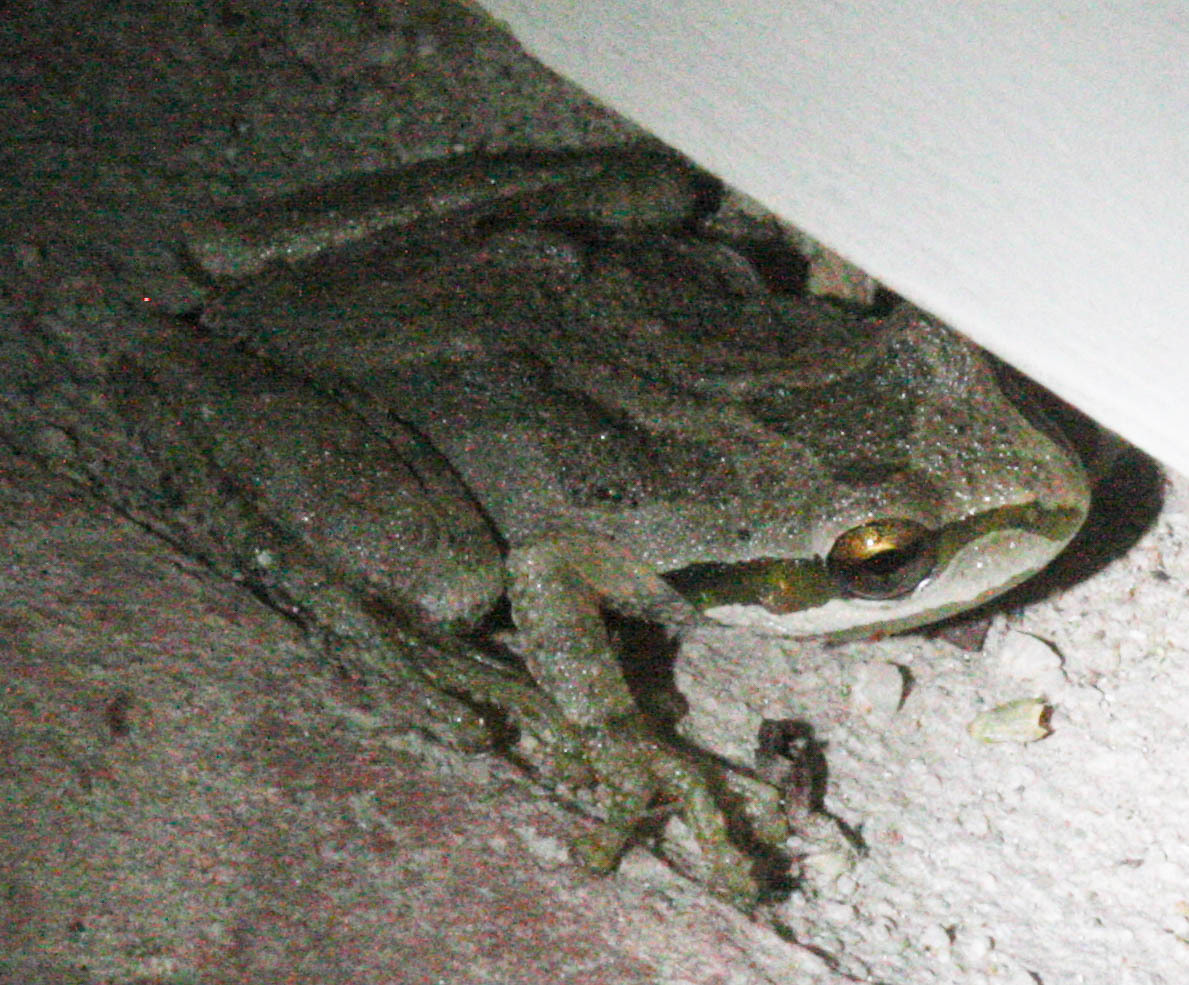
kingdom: Animalia
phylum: Chordata
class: Amphibia
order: Anura
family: Hylidae
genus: Pseudacris
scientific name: Pseudacris regilla
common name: Pacific chorus frog
